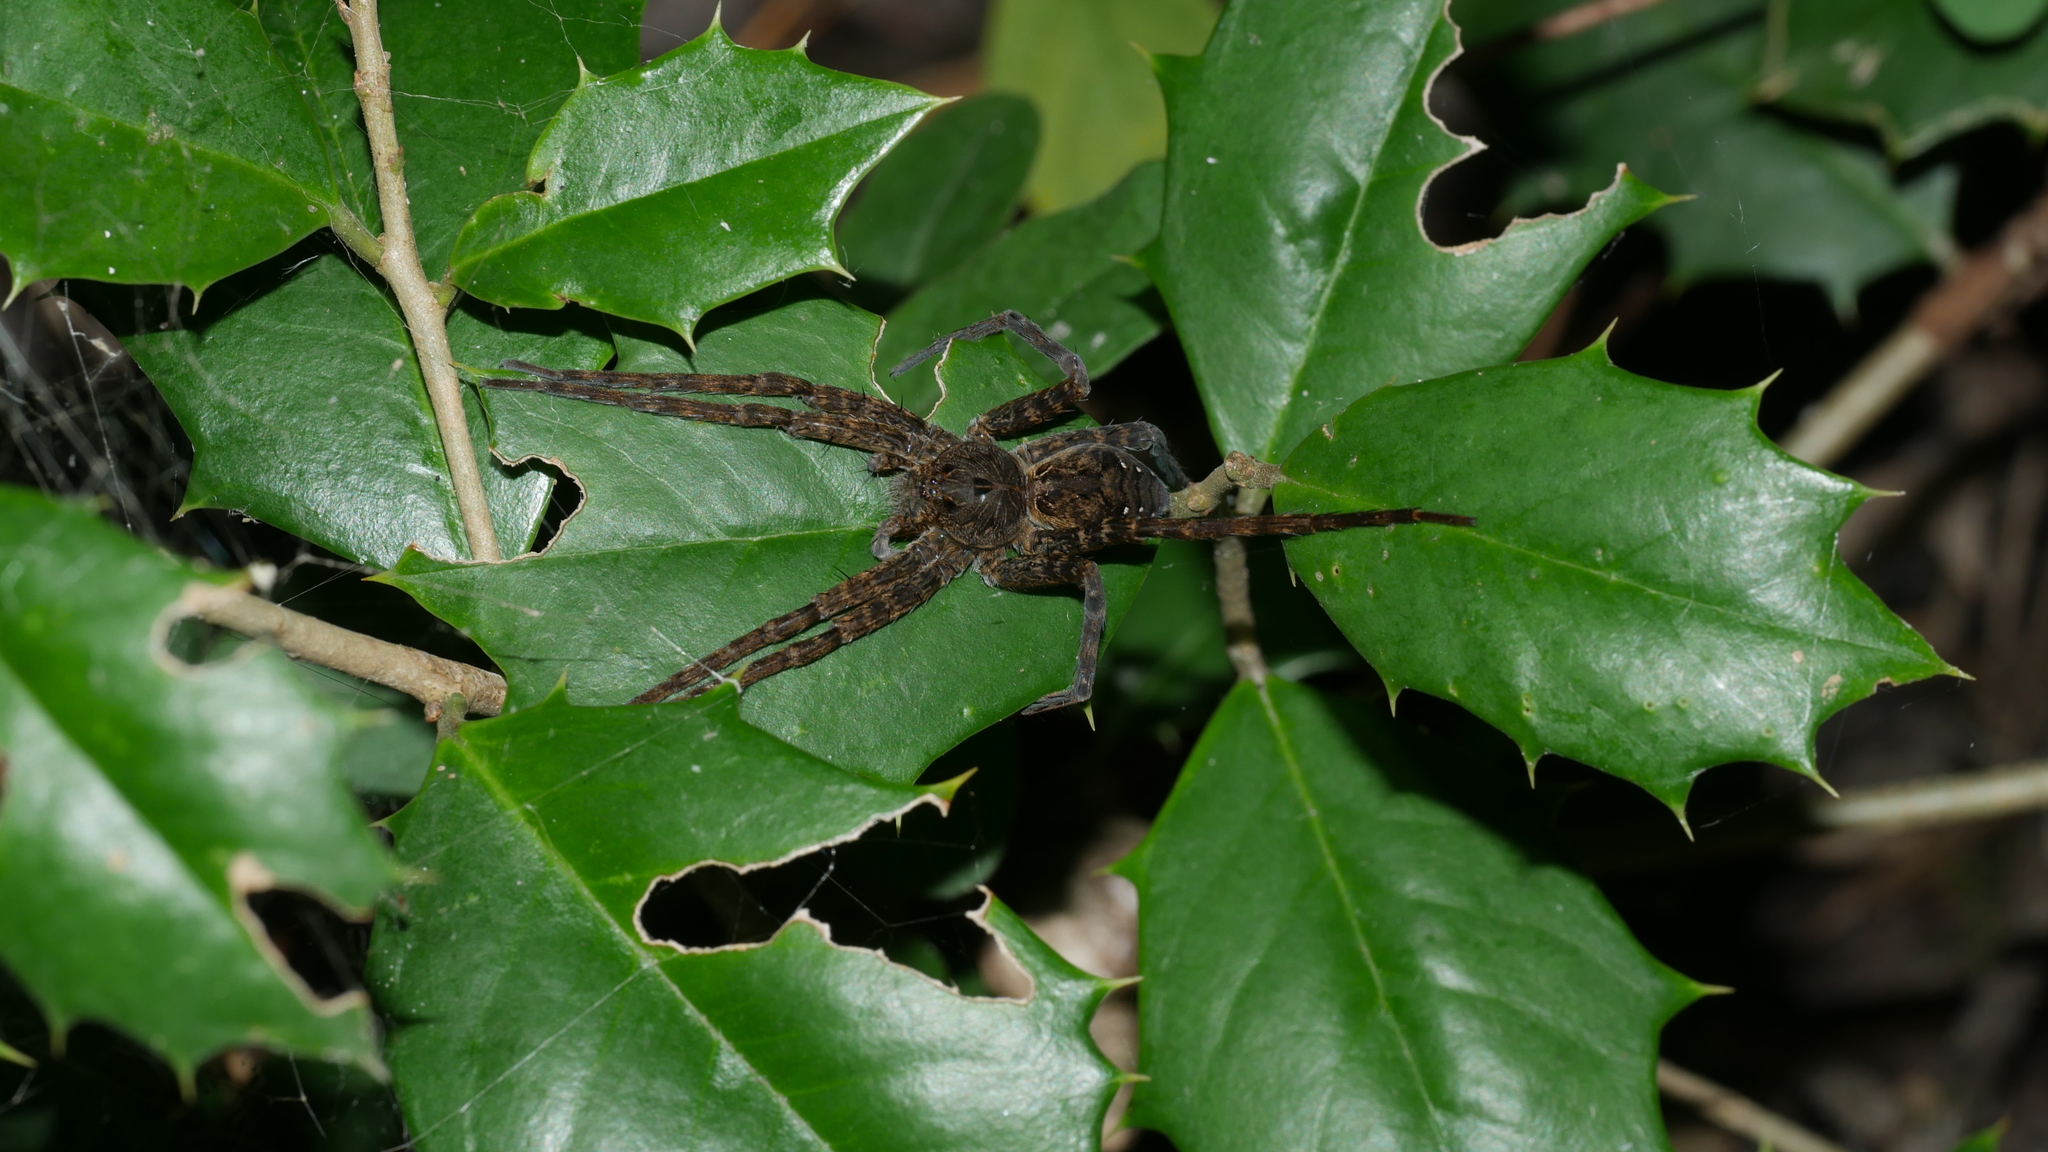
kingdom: Animalia
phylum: Arthropoda
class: Arachnida
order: Araneae
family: Pisauridae
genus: Dolomedes
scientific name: Dolomedes vittatus
